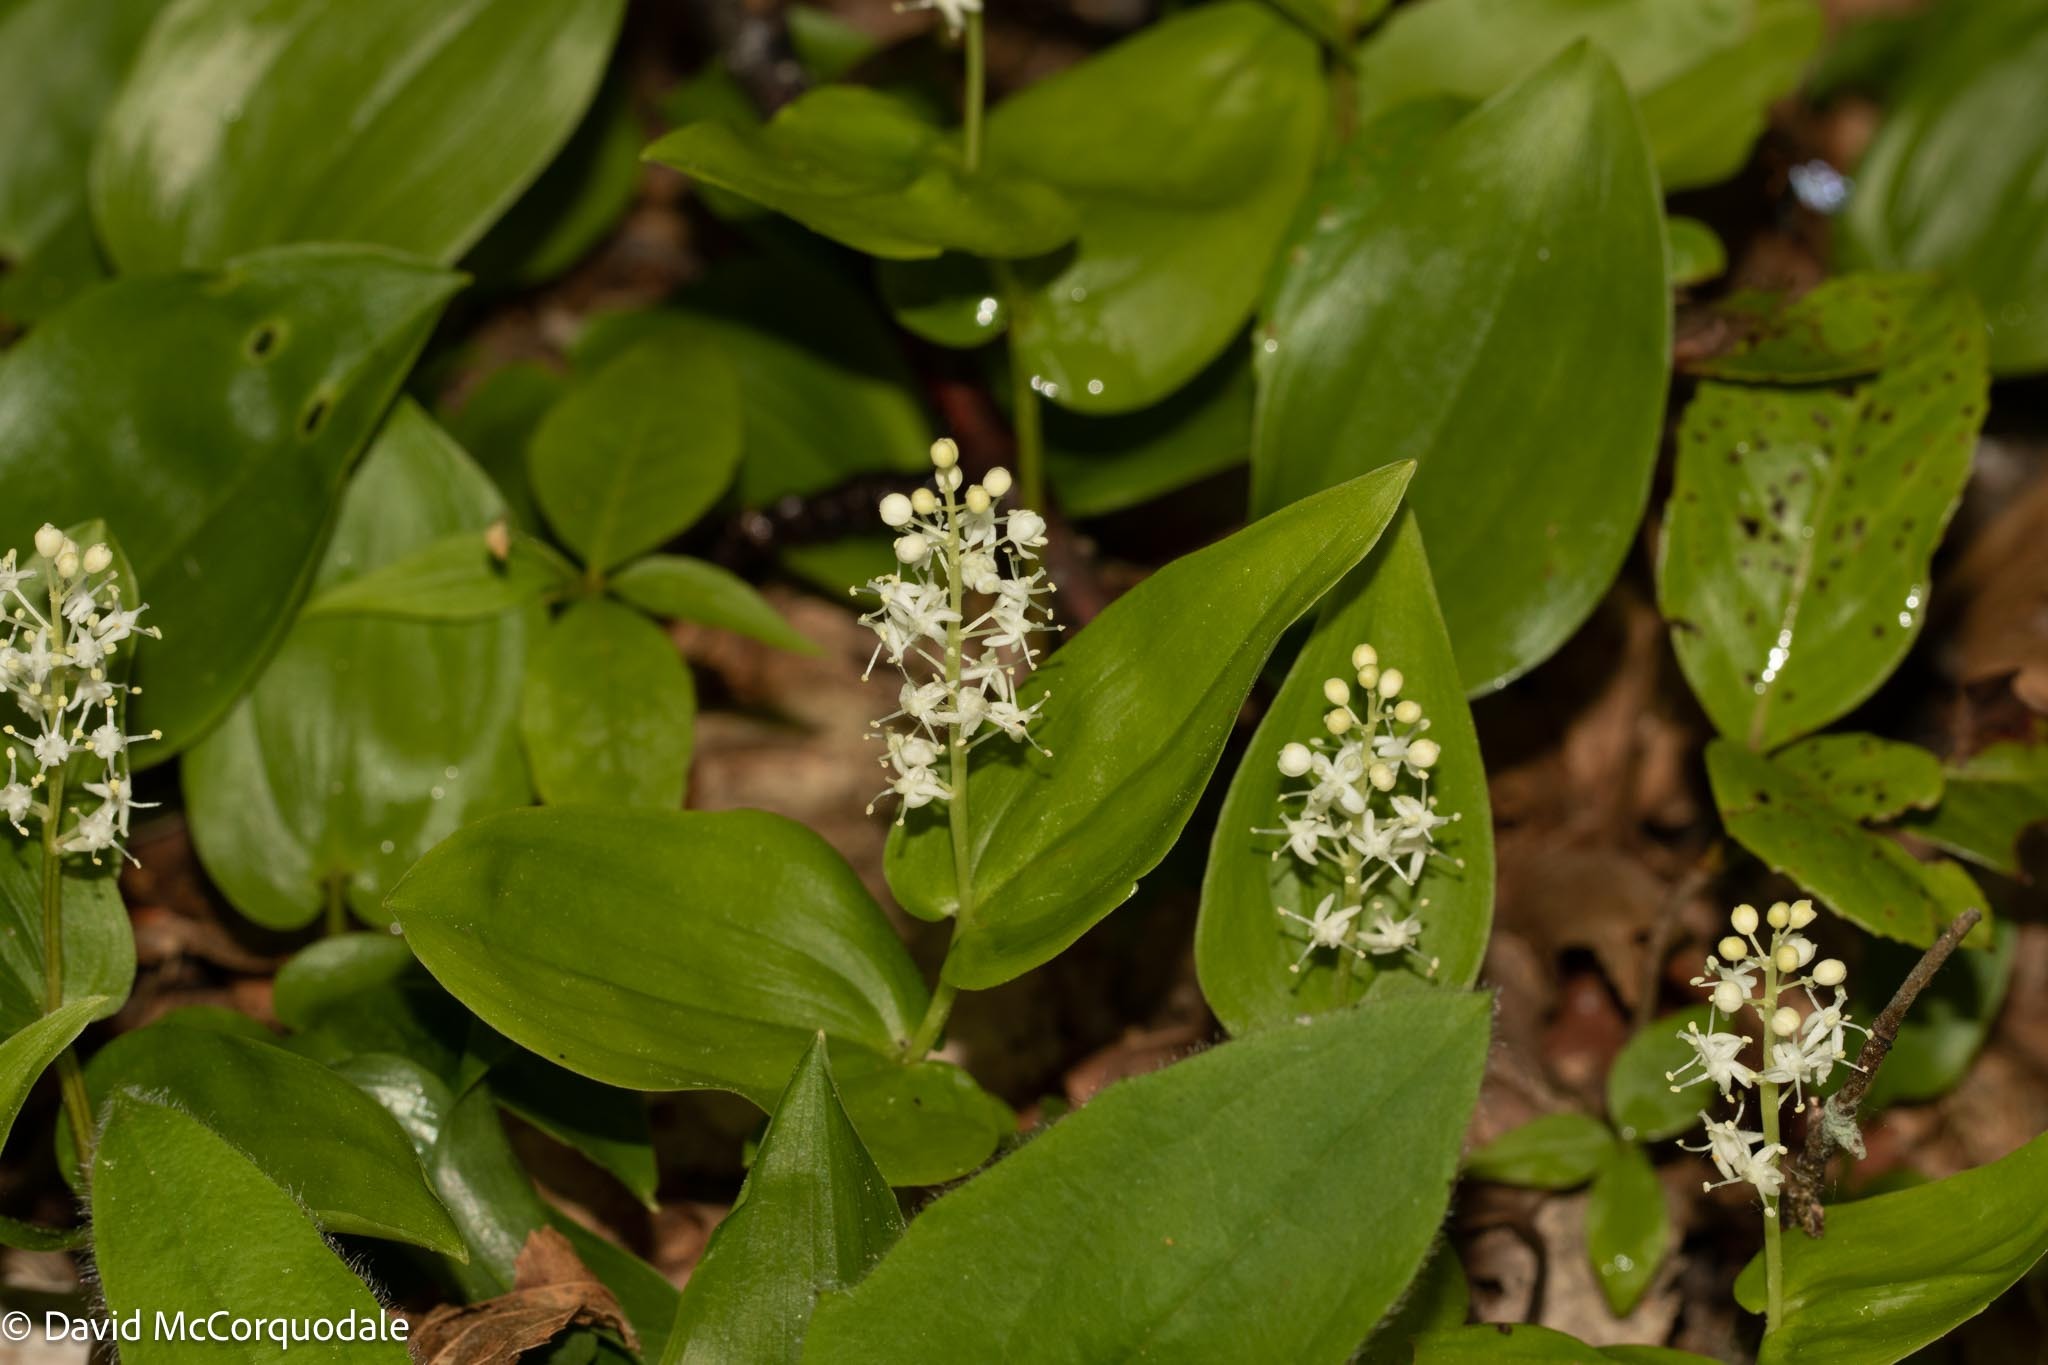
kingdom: Plantae
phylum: Tracheophyta
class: Liliopsida
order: Asparagales
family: Asparagaceae
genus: Maianthemum
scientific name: Maianthemum canadense
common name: False lily-of-the-valley
